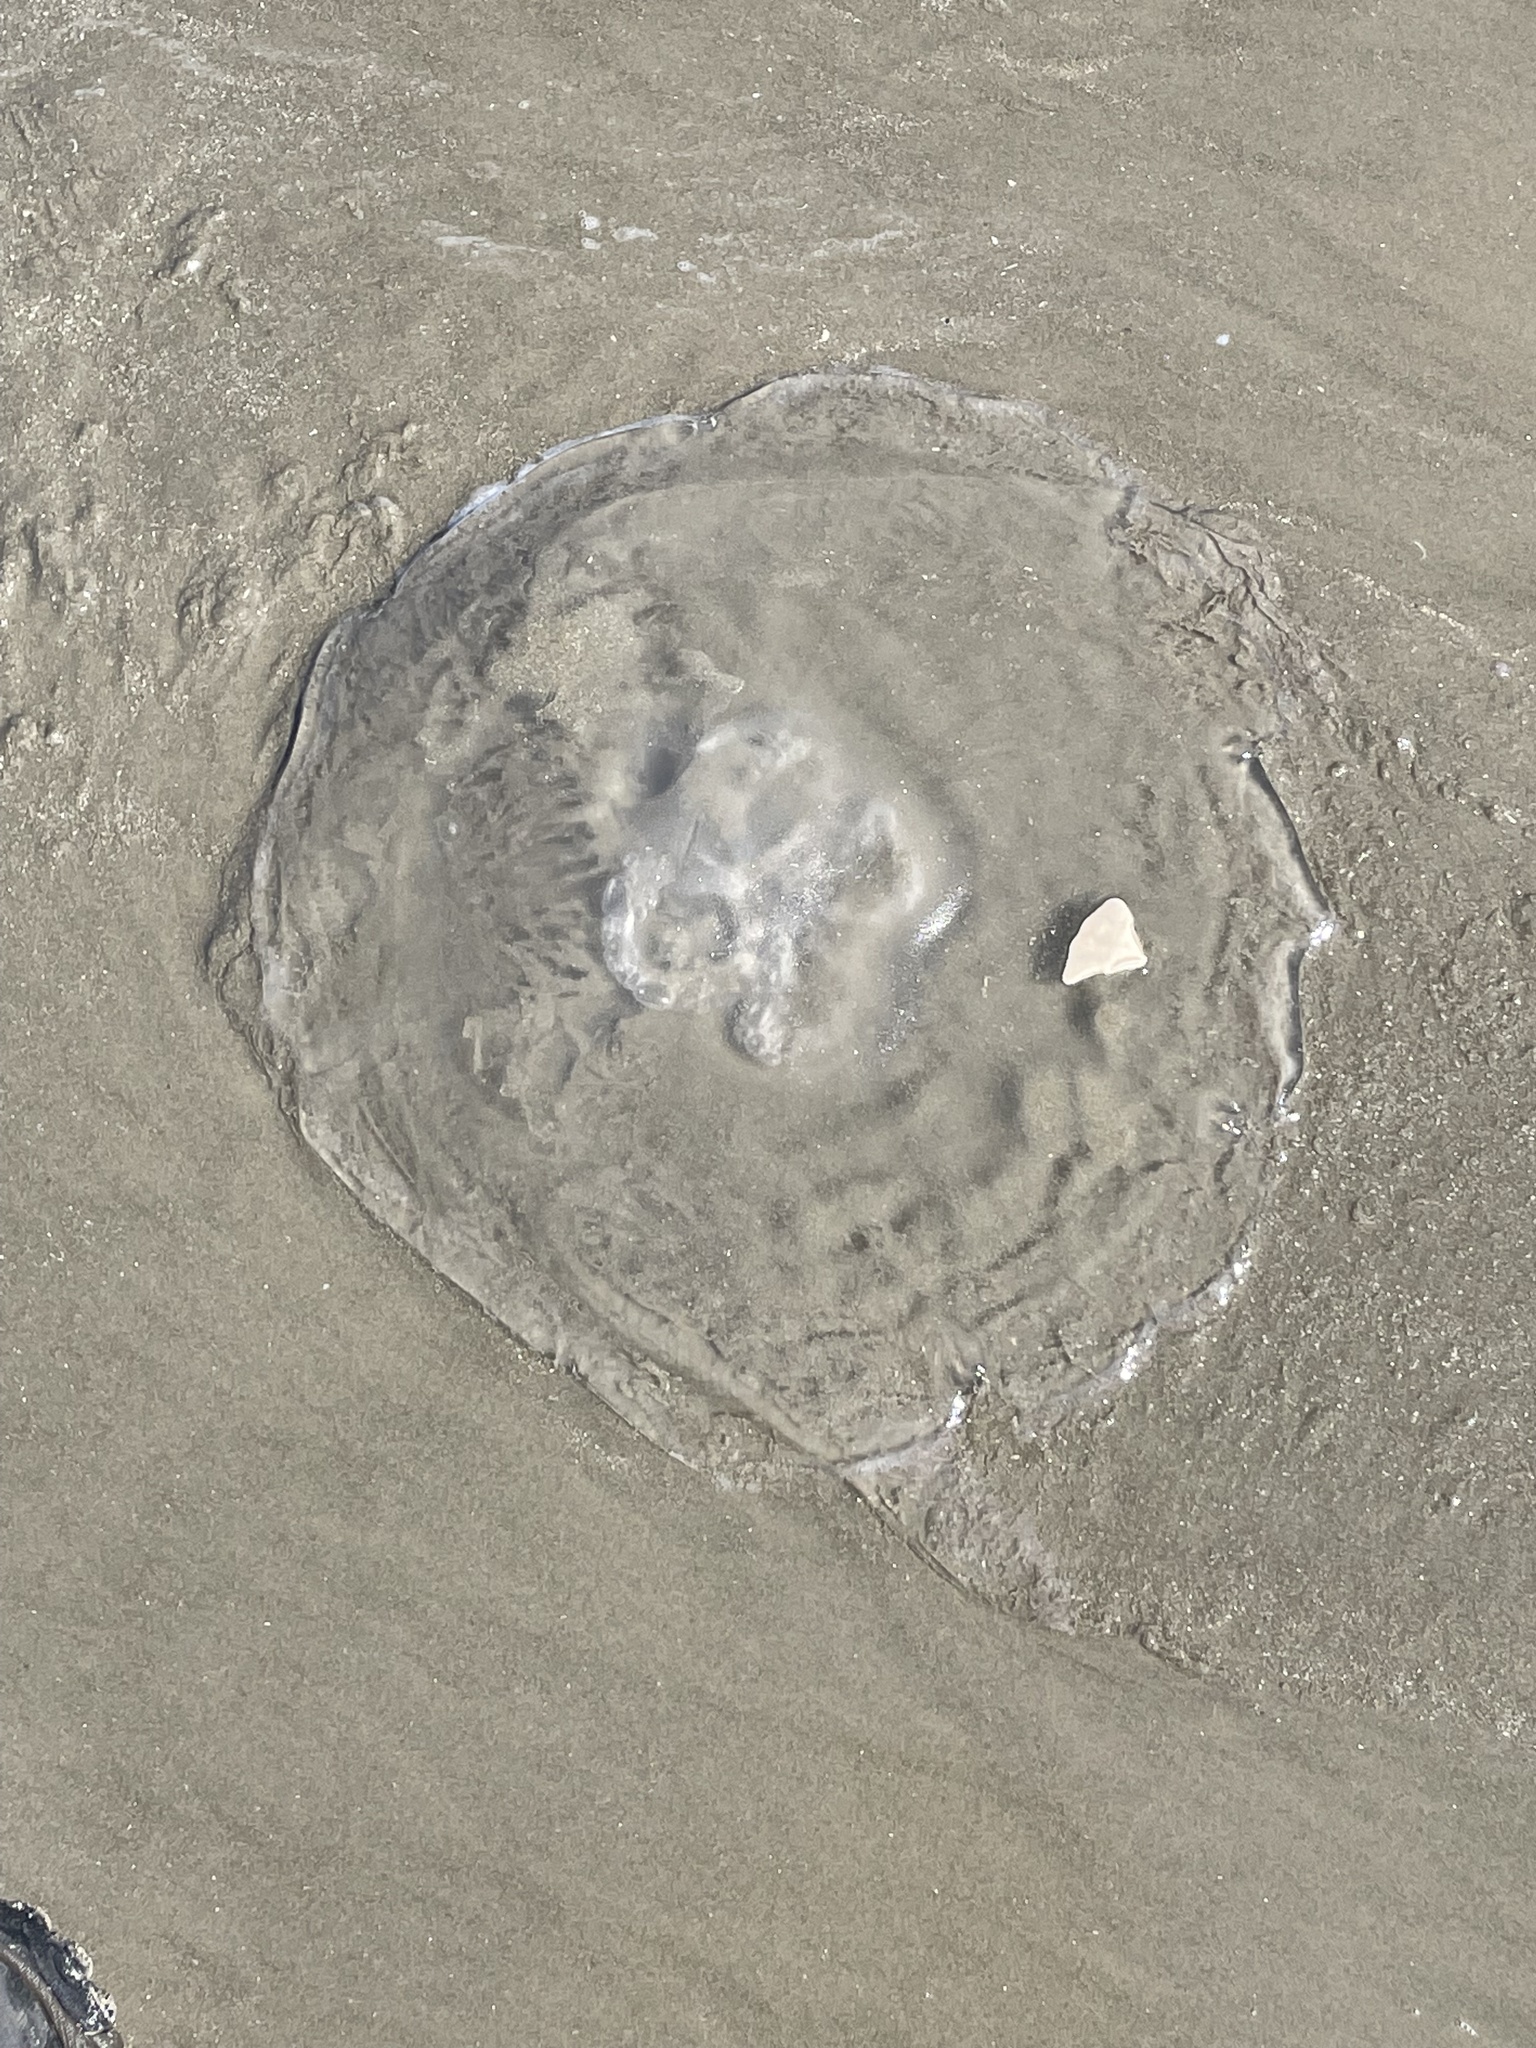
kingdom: Animalia
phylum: Cnidaria
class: Scyphozoa
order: Semaeostomeae
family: Ulmaridae
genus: Aurelia
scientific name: Aurelia marginalis
